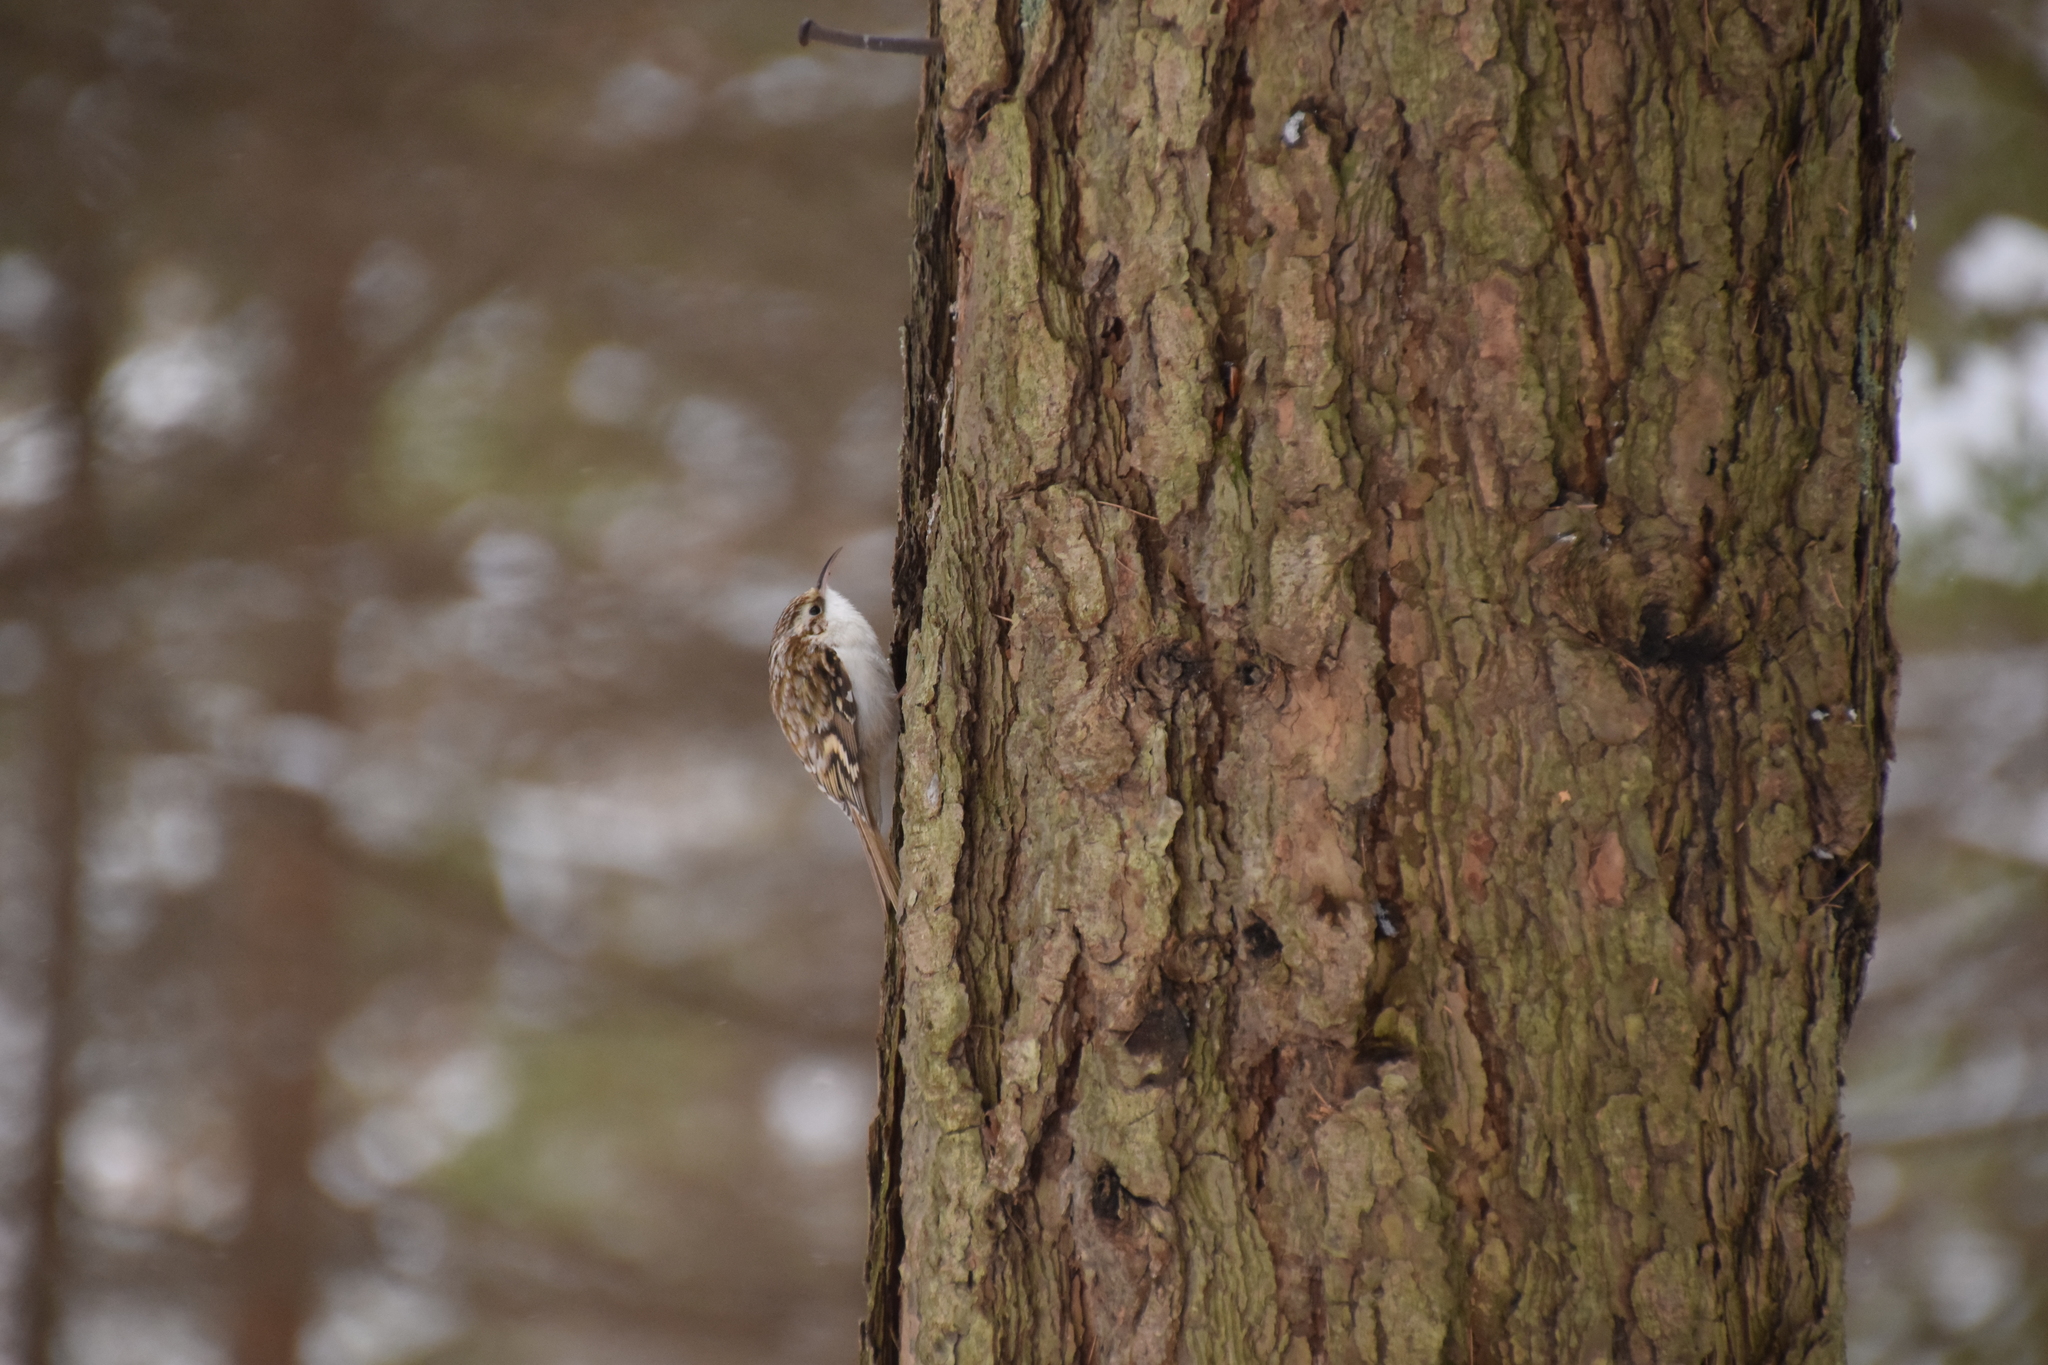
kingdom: Animalia
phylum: Chordata
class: Aves
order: Passeriformes
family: Certhiidae
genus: Certhia
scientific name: Certhia familiaris
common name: Eurasian treecreeper
